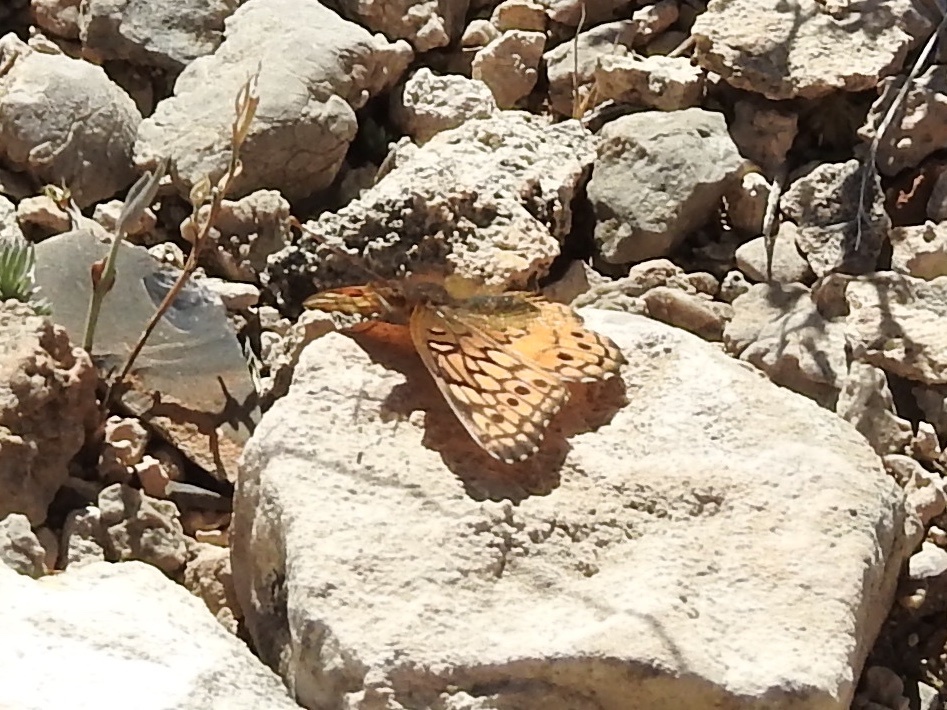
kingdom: Animalia
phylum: Arthropoda
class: Insecta
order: Lepidoptera
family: Nymphalidae
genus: Euptoieta
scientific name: Euptoieta claudia
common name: Variegated fritillary
